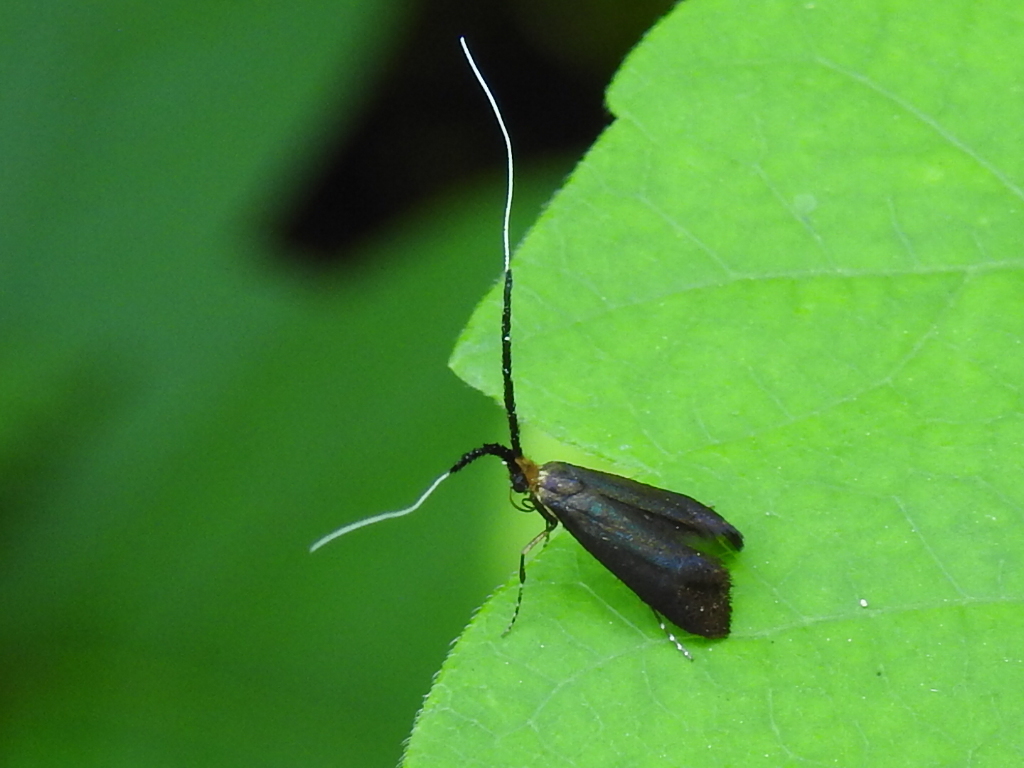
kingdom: Animalia
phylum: Arthropoda
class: Insecta
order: Lepidoptera
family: Adelidae
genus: Adela
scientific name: Adela caeruleella
